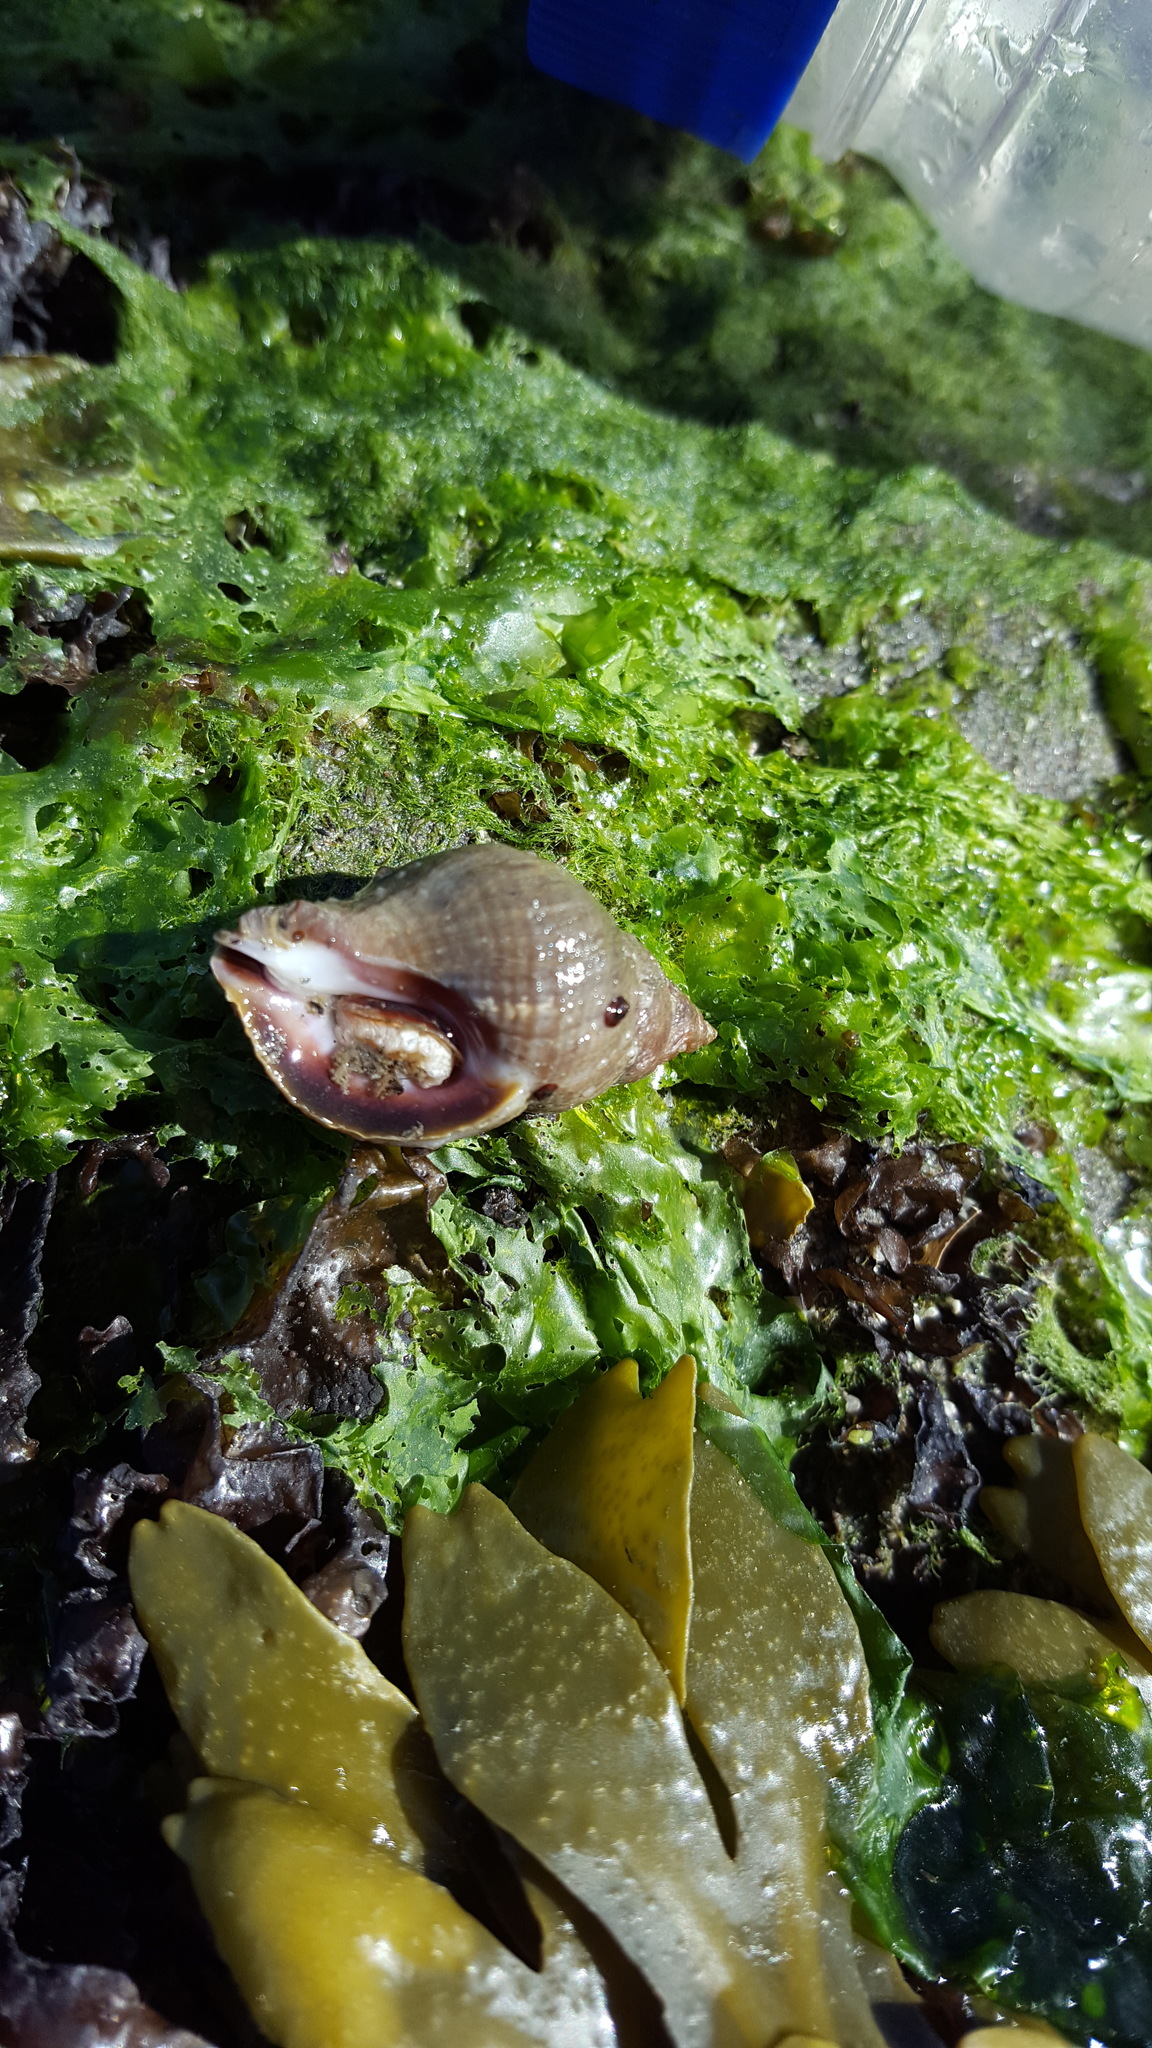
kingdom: Animalia
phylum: Mollusca
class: Gastropoda
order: Neogastropoda
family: Muricidae
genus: Nucella
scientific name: Nucella lamellosa
